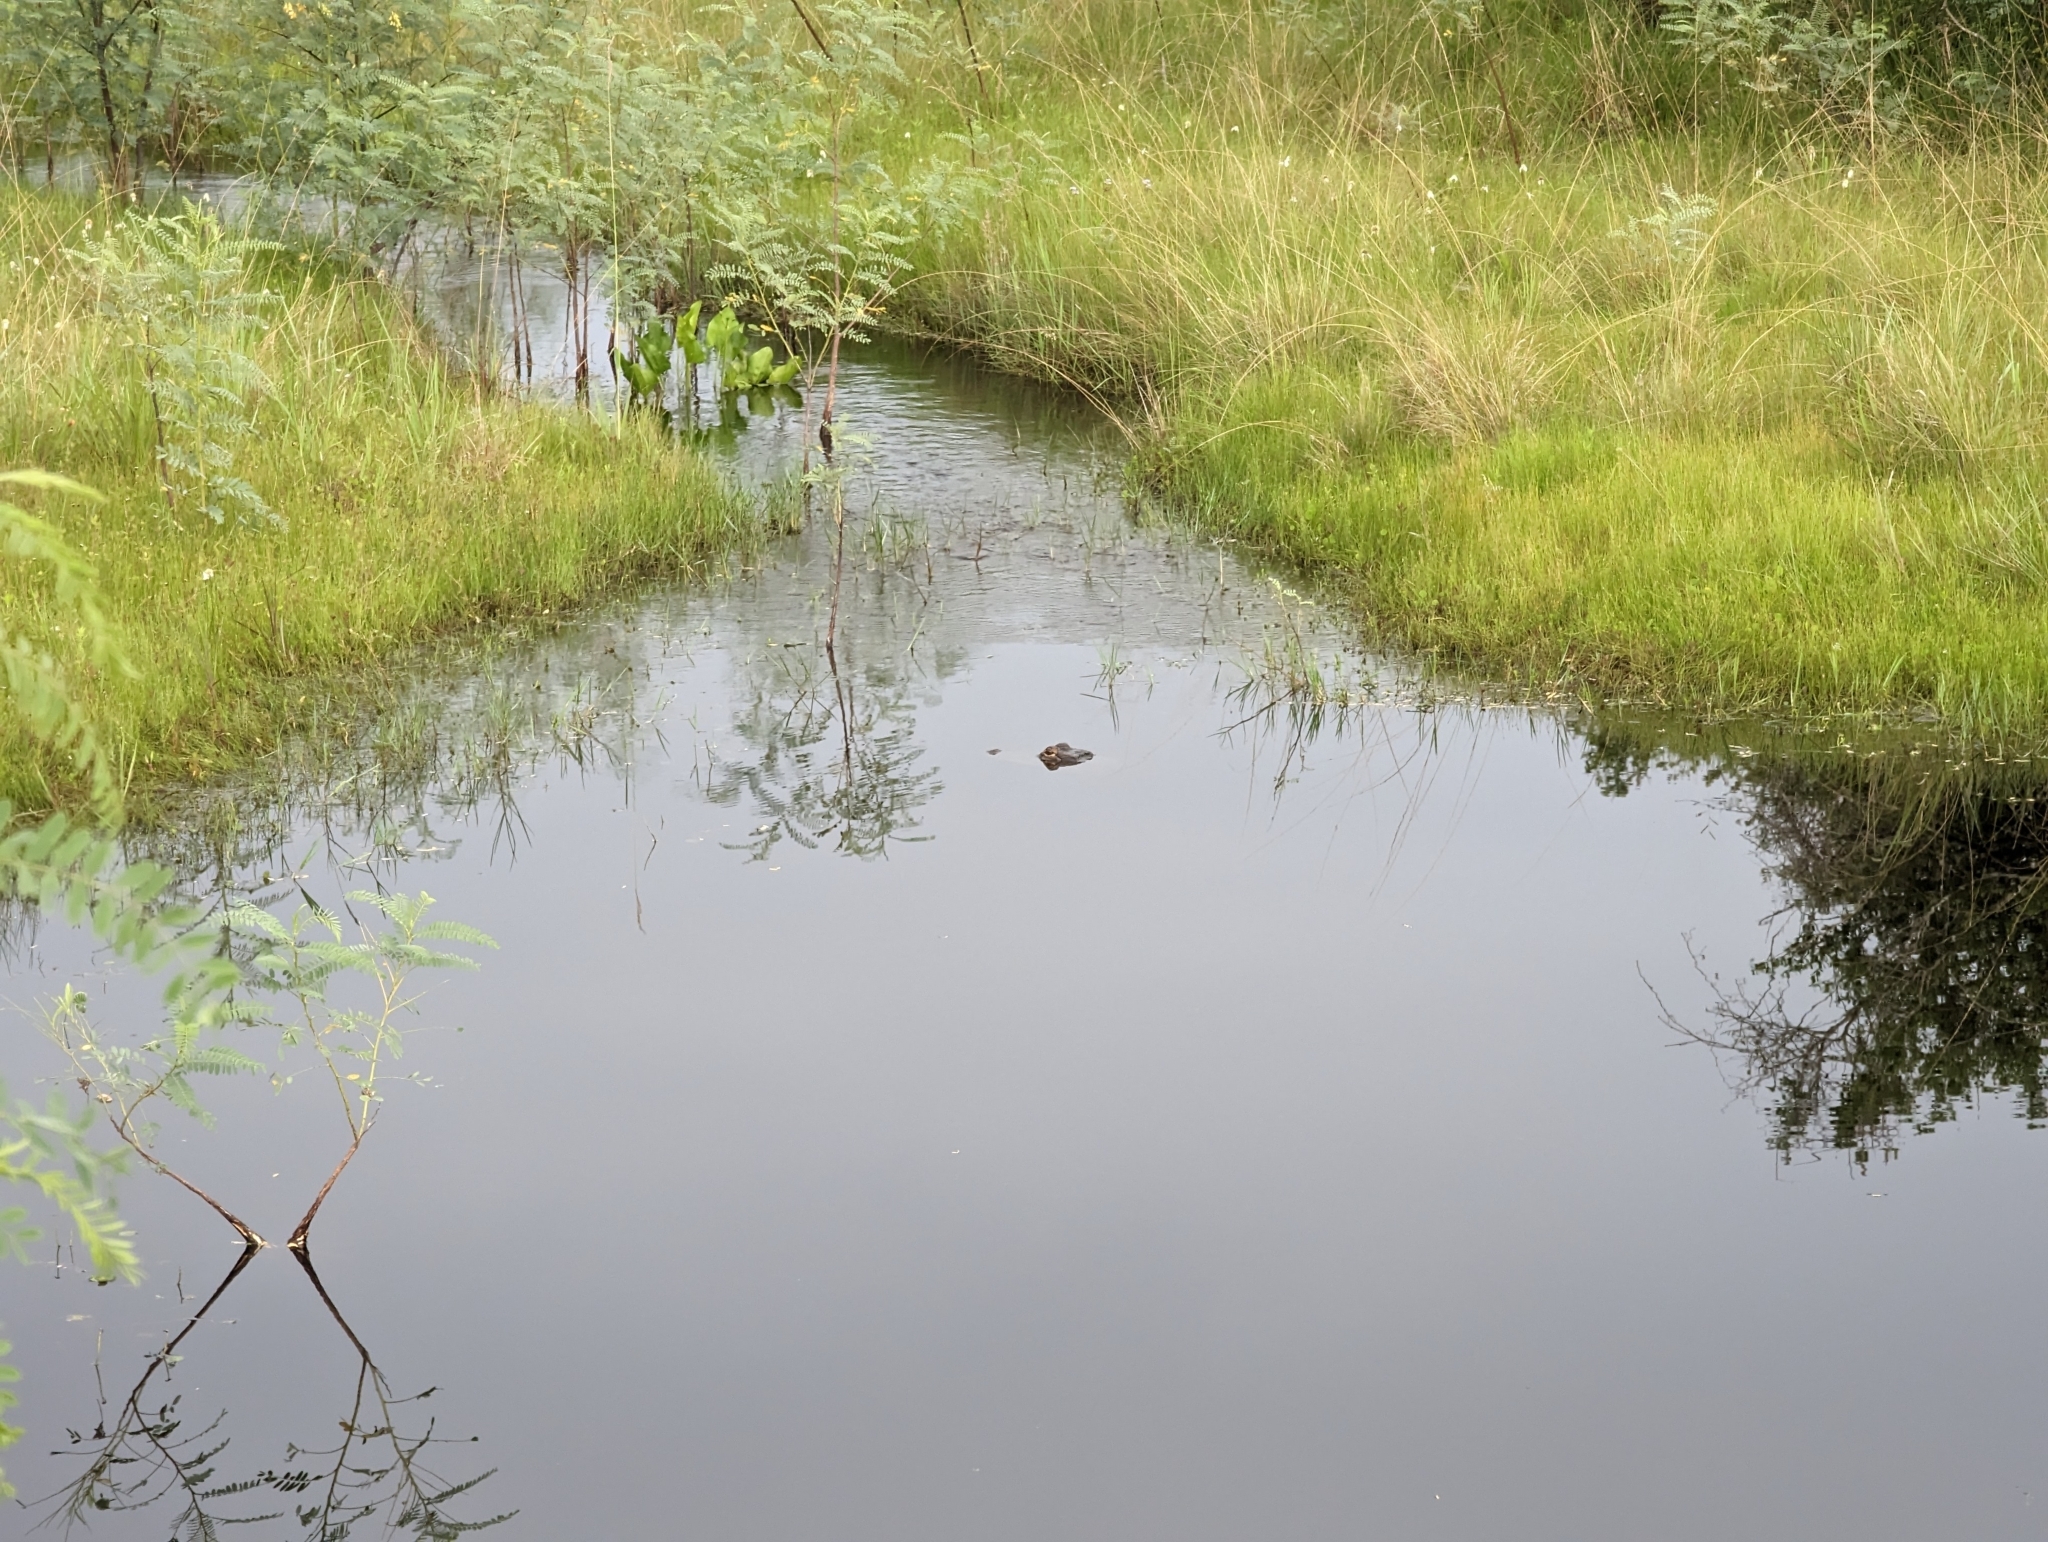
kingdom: Animalia
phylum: Chordata
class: Crocodylia
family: Alligatoridae
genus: Alligator
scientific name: Alligator mississippiensis
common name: American alligator
